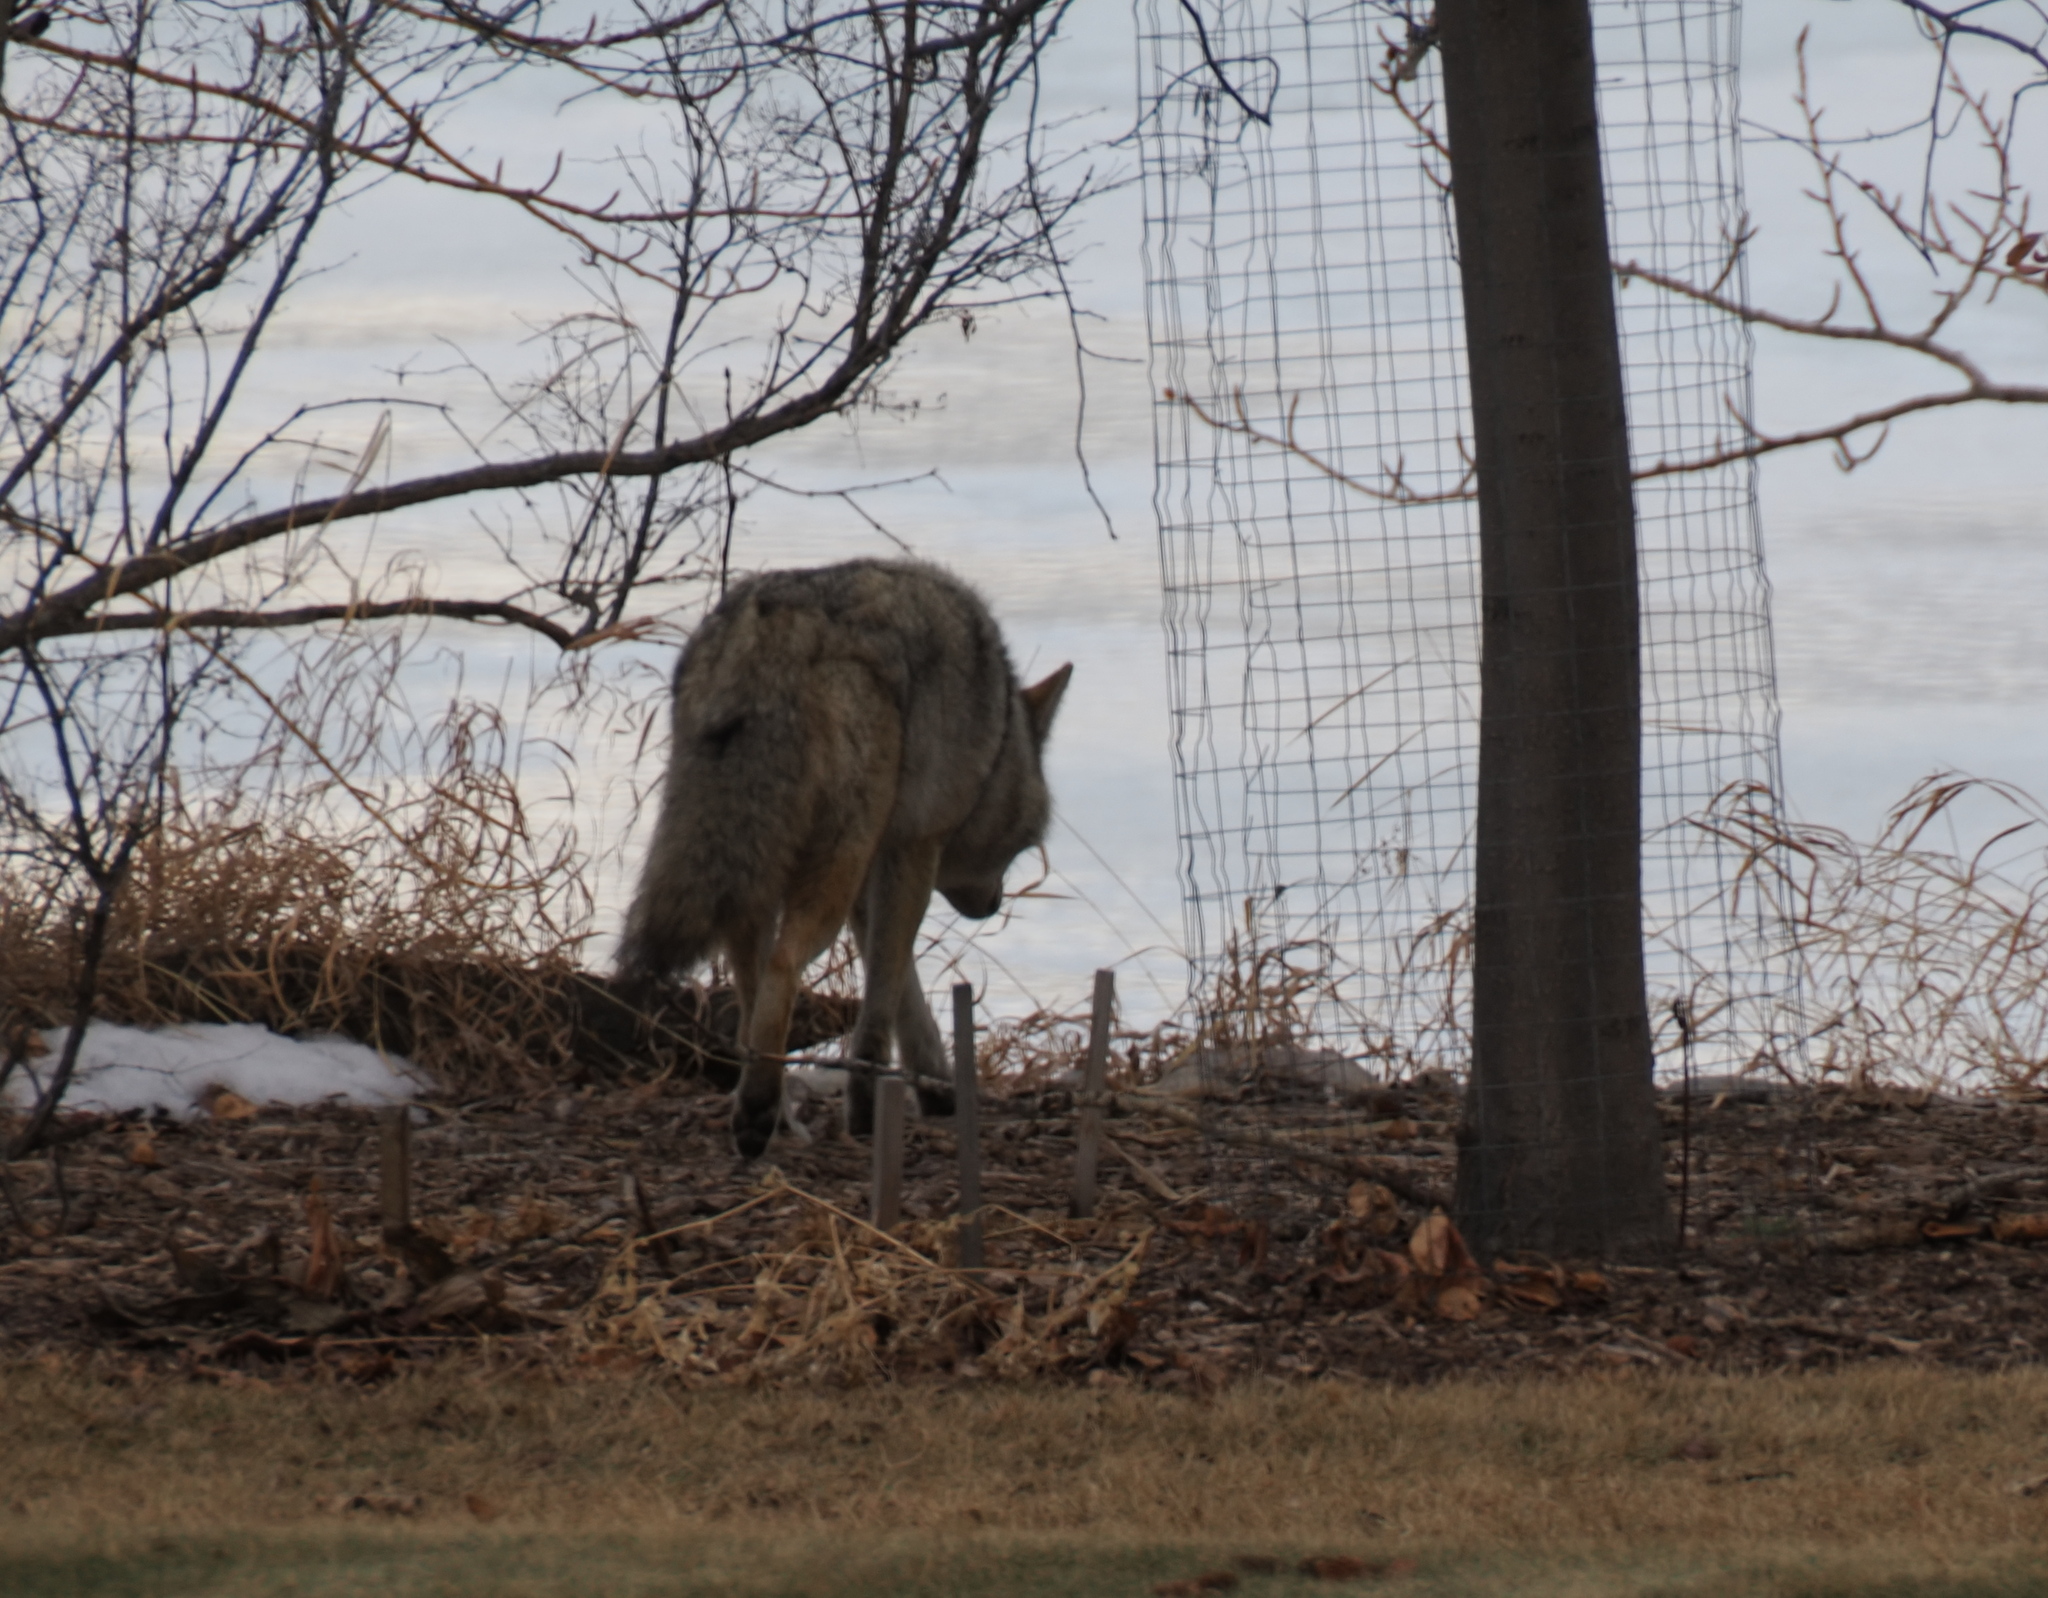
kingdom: Animalia
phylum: Chordata
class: Mammalia
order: Carnivora
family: Canidae
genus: Canis
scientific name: Canis latrans
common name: Coyote
